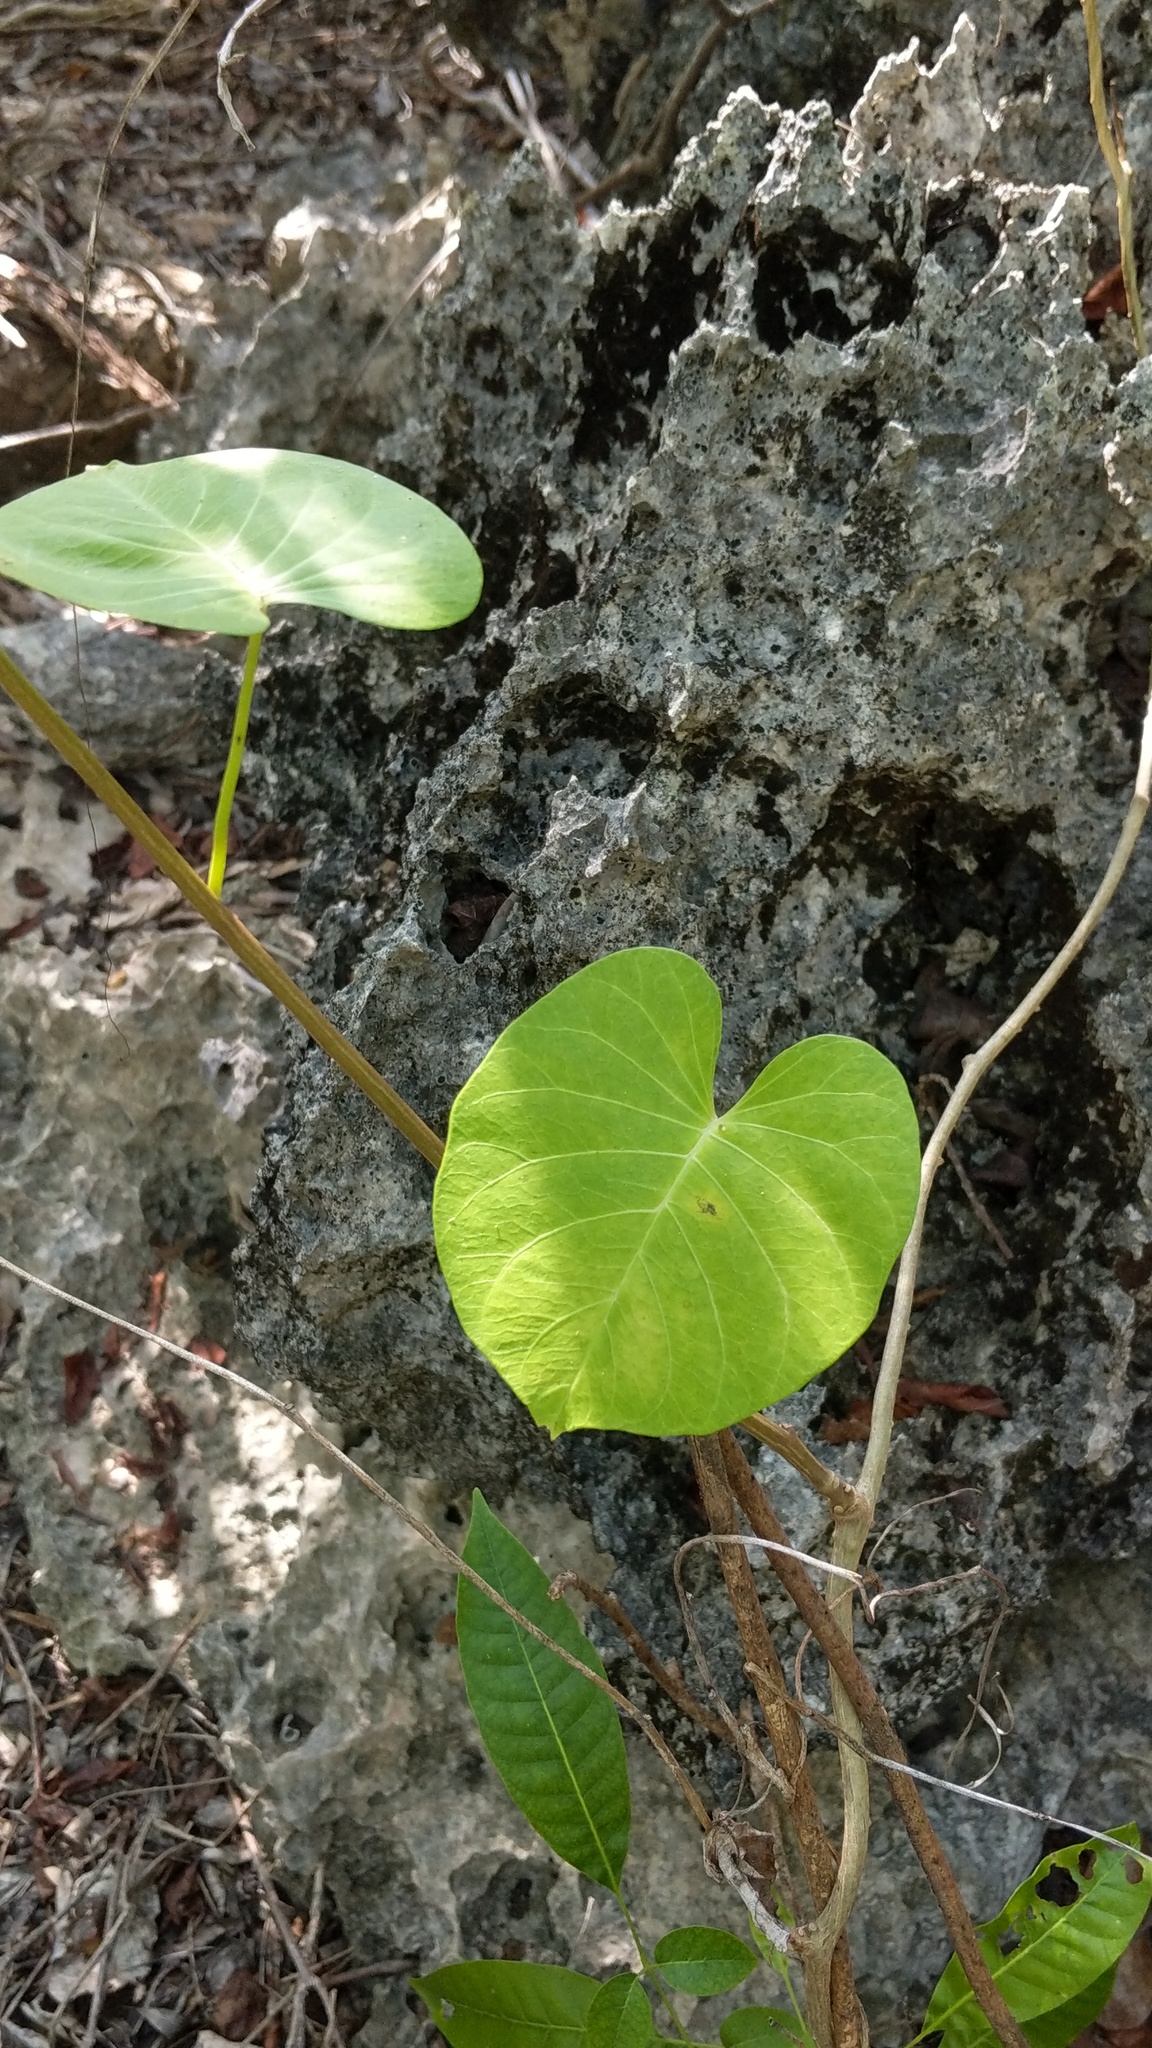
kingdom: Plantae
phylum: Tracheophyta
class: Magnoliopsida
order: Solanales
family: Convolvulaceae
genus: Ipomoea
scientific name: Ipomoea violacea
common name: Beach moonflower
